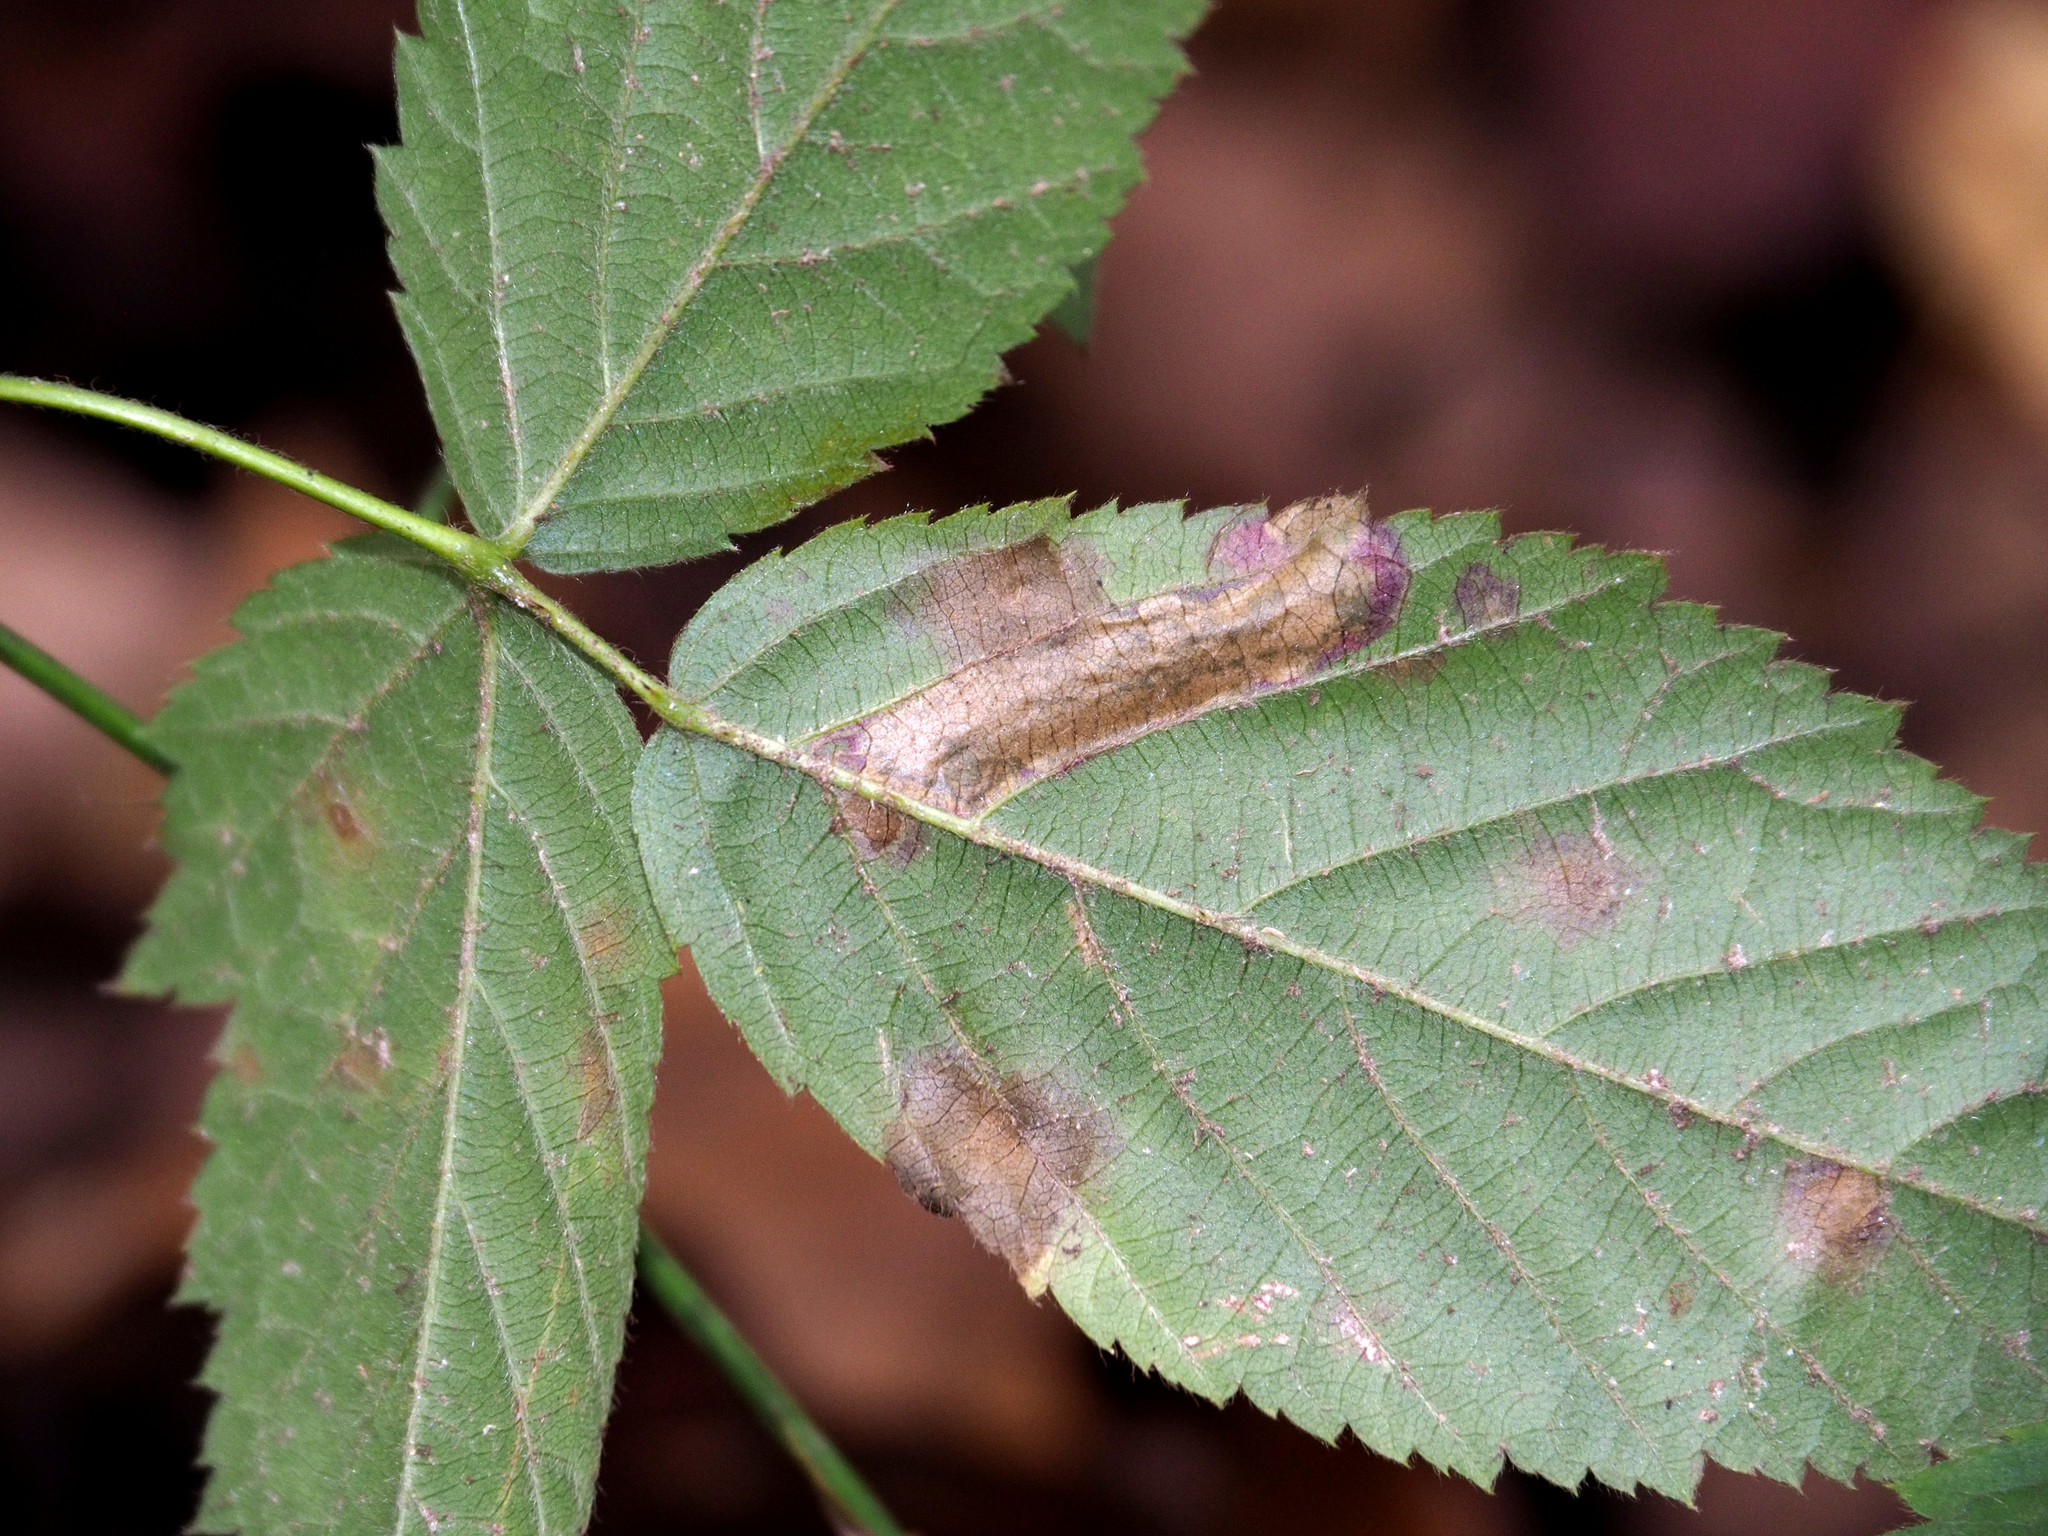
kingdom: Animalia
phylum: Arthropoda
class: Insecta
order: Lepidoptera
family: Nepticulidae
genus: Ectoedemia
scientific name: Ectoedemia rubifoliella
